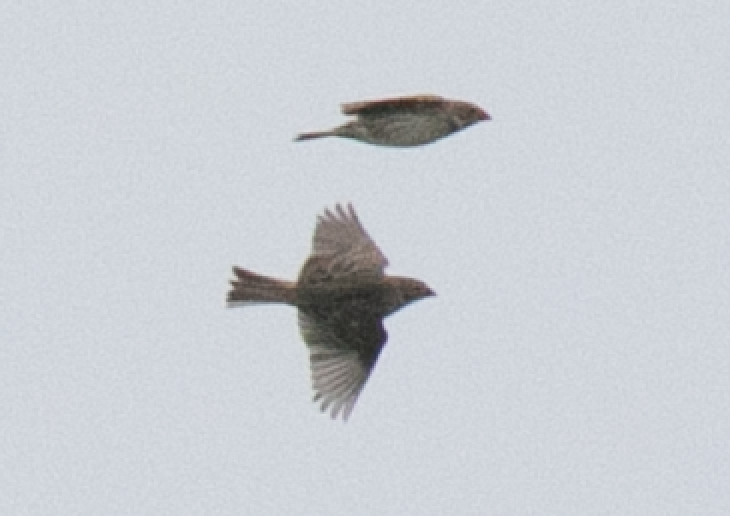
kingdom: Animalia
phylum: Chordata
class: Aves
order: Passeriformes
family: Emberizidae
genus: Emberiza
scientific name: Emberiza calandra
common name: Corn bunting
